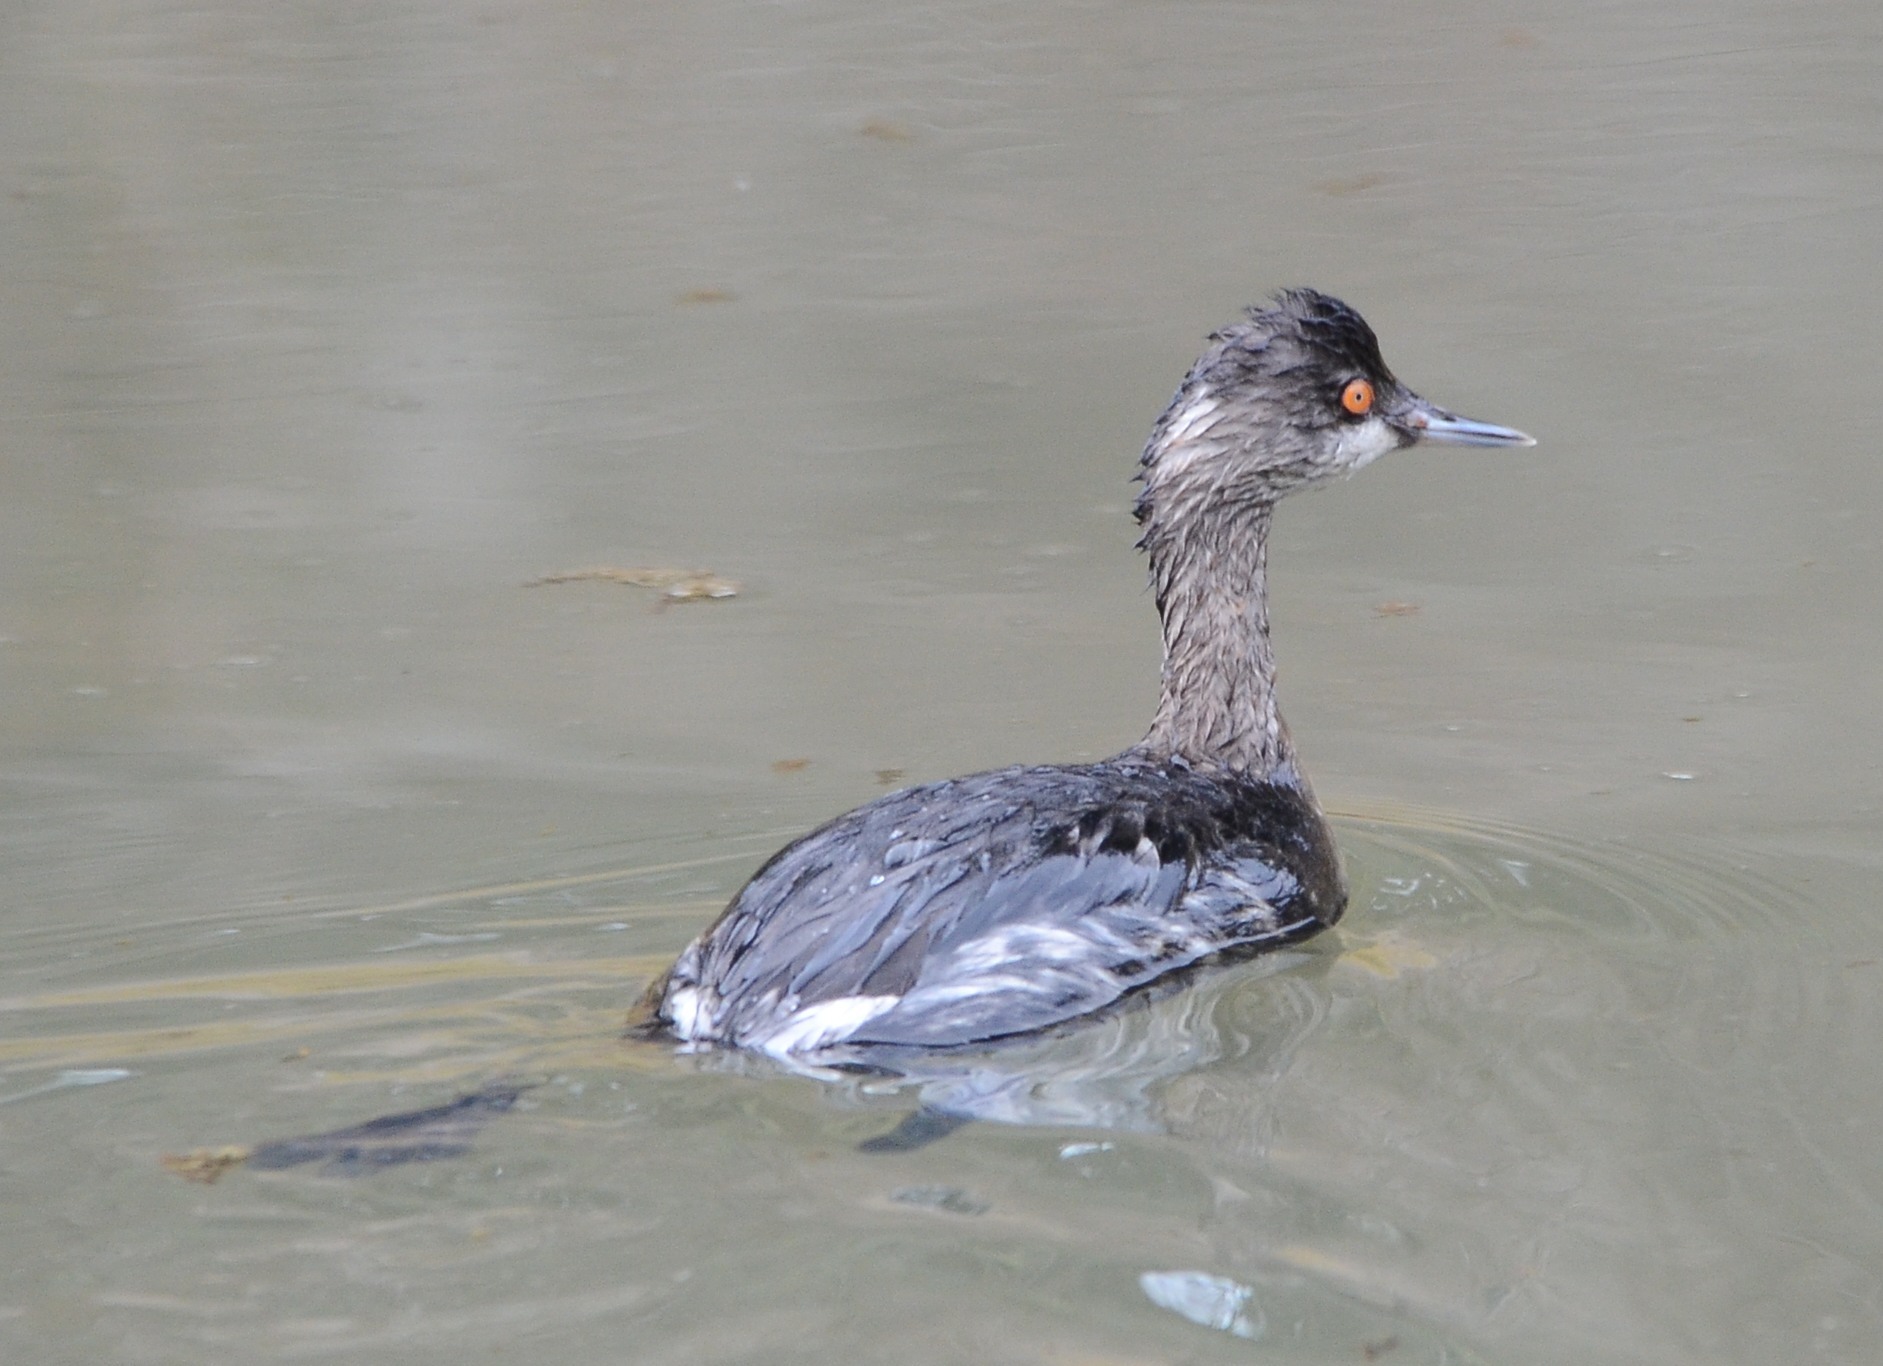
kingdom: Animalia
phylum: Chordata
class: Aves
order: Podicipediformes
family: Podicipedidae
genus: Podiceps
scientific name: Podiceps nigricollis
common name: Black-necked grebe
